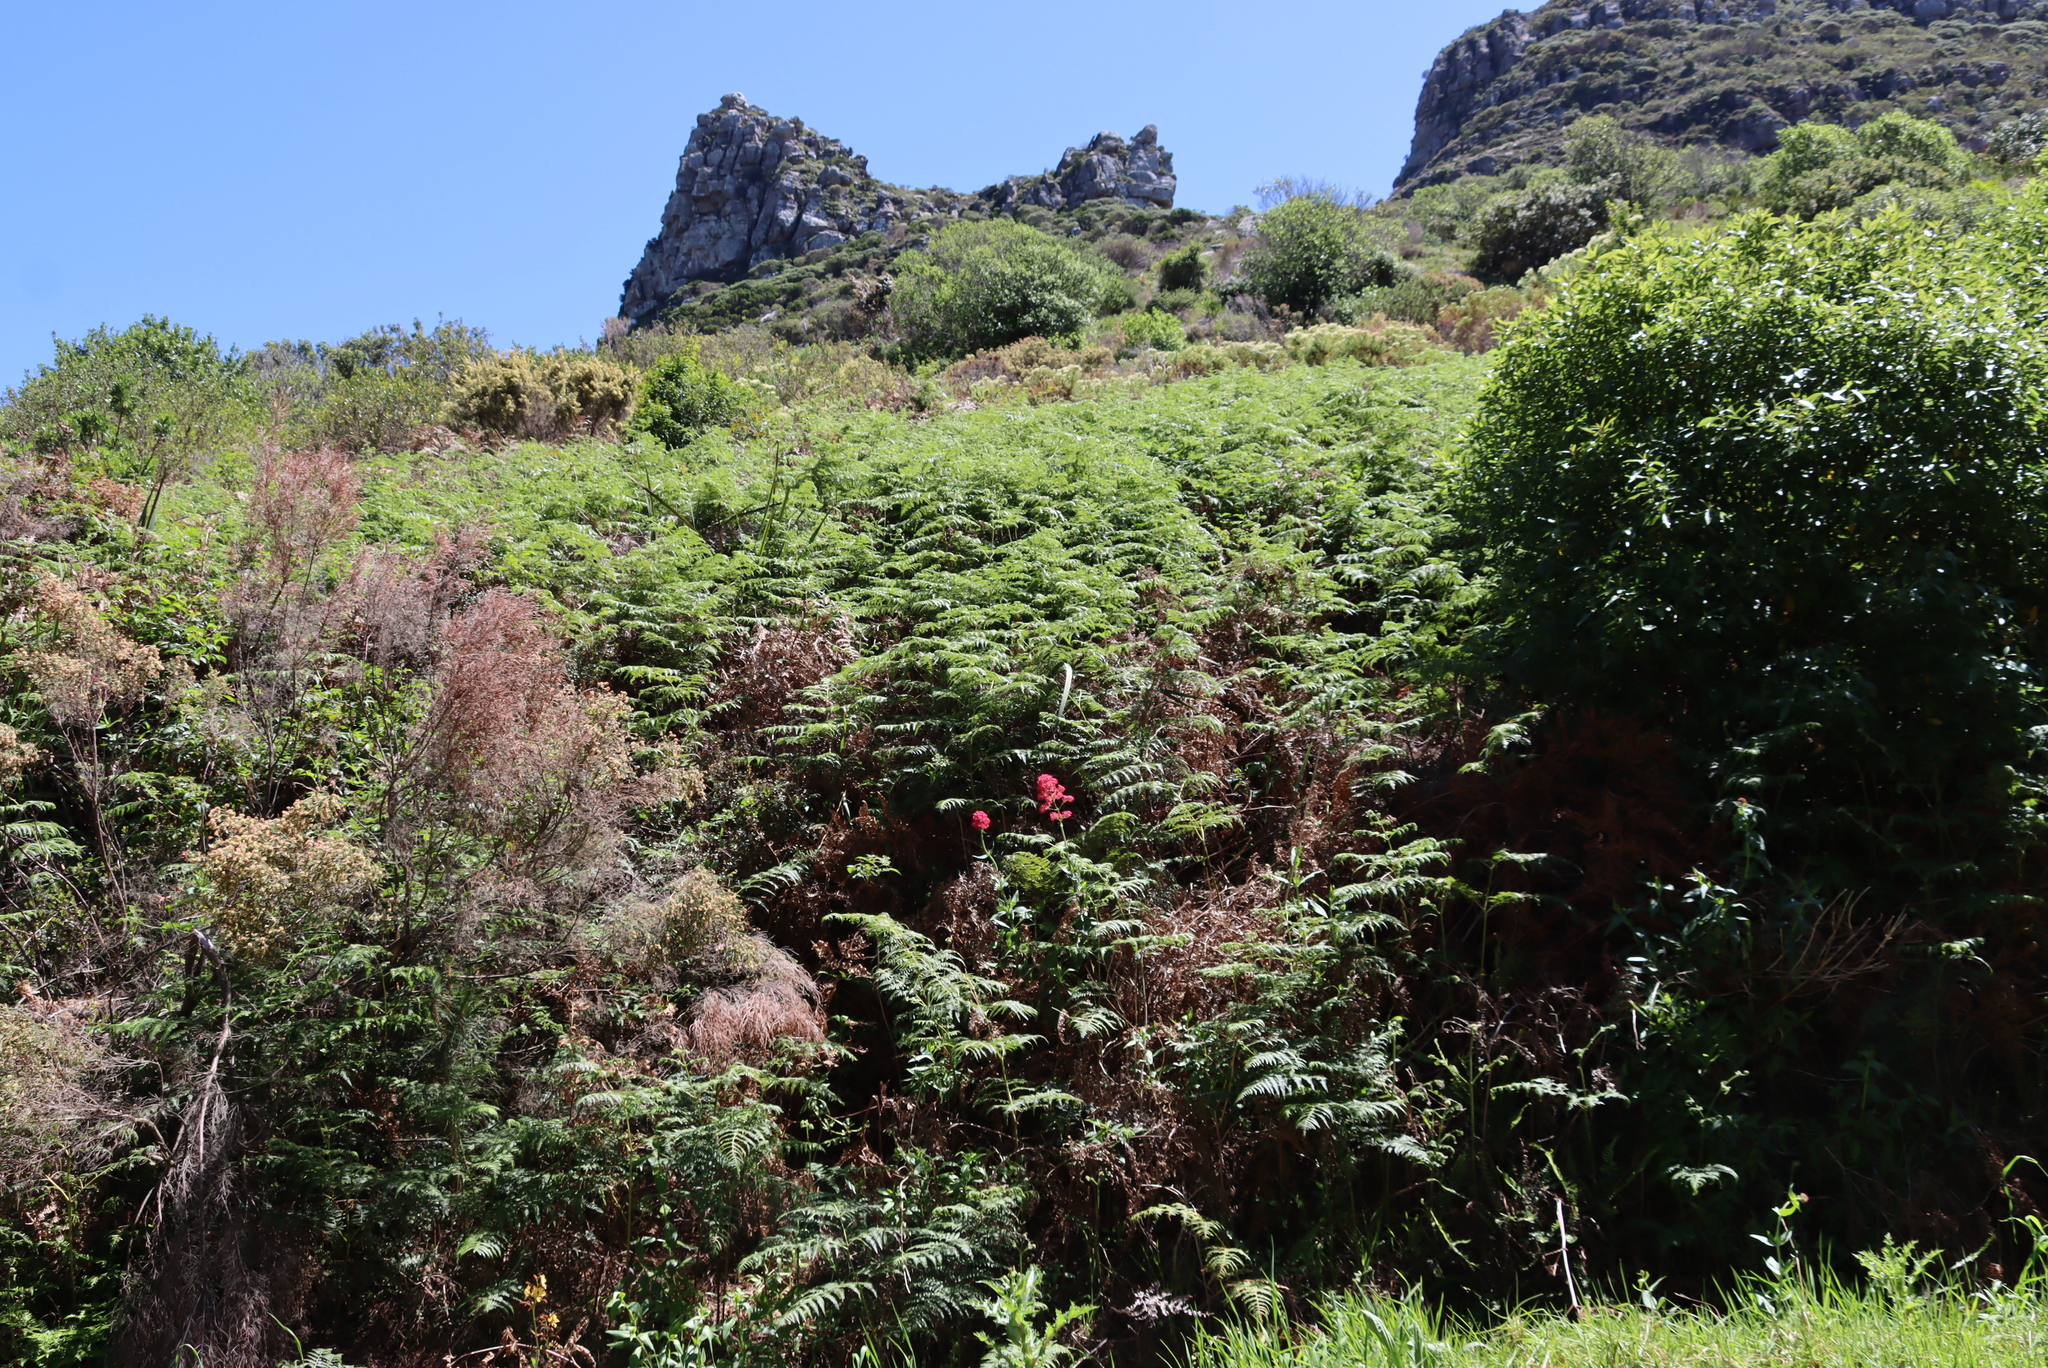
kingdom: Plantae
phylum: Tracheophyta
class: Magnoliopsida
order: Dipsacales
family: Caprifoliaceae
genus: Centranthus
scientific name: Centranthus ruber
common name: Red valerian
